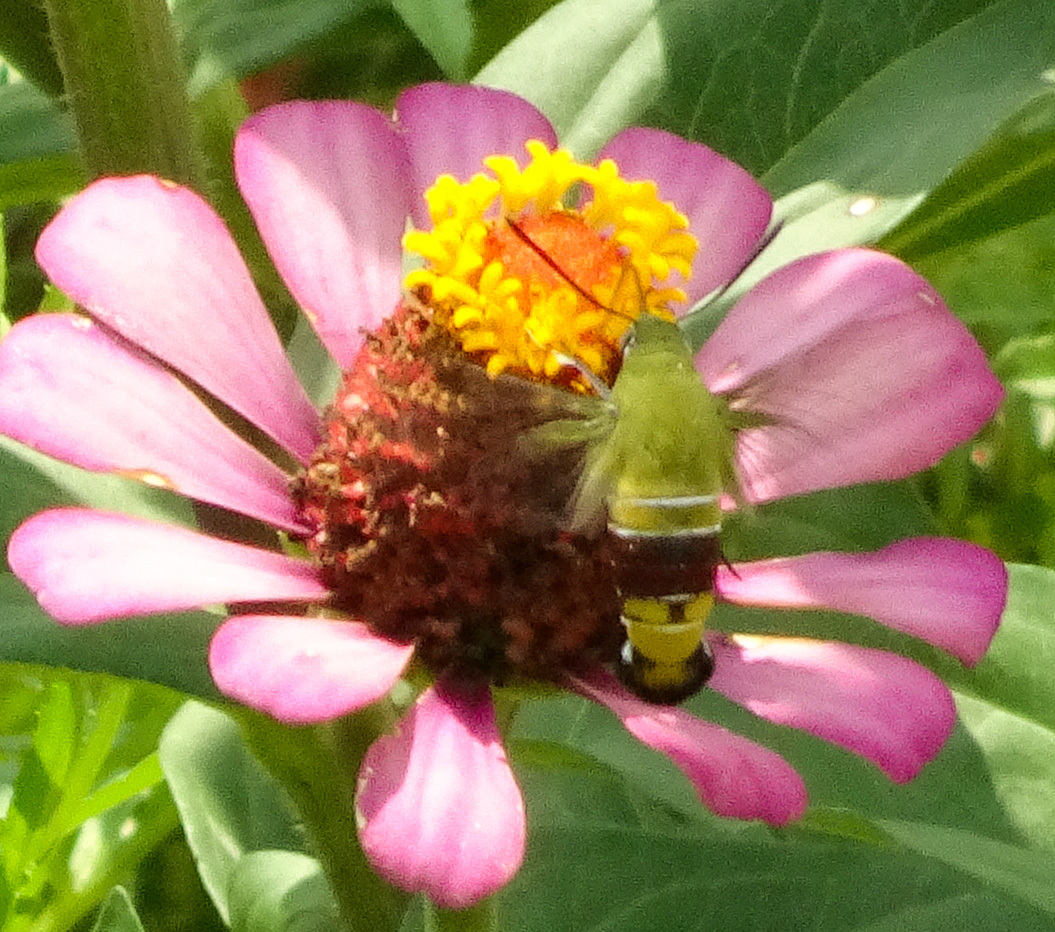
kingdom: Animalia
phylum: Arthropoda
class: Insecta
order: Lepidoptera
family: Sphingidae
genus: Cephonodes
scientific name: Cephonodes hylas
